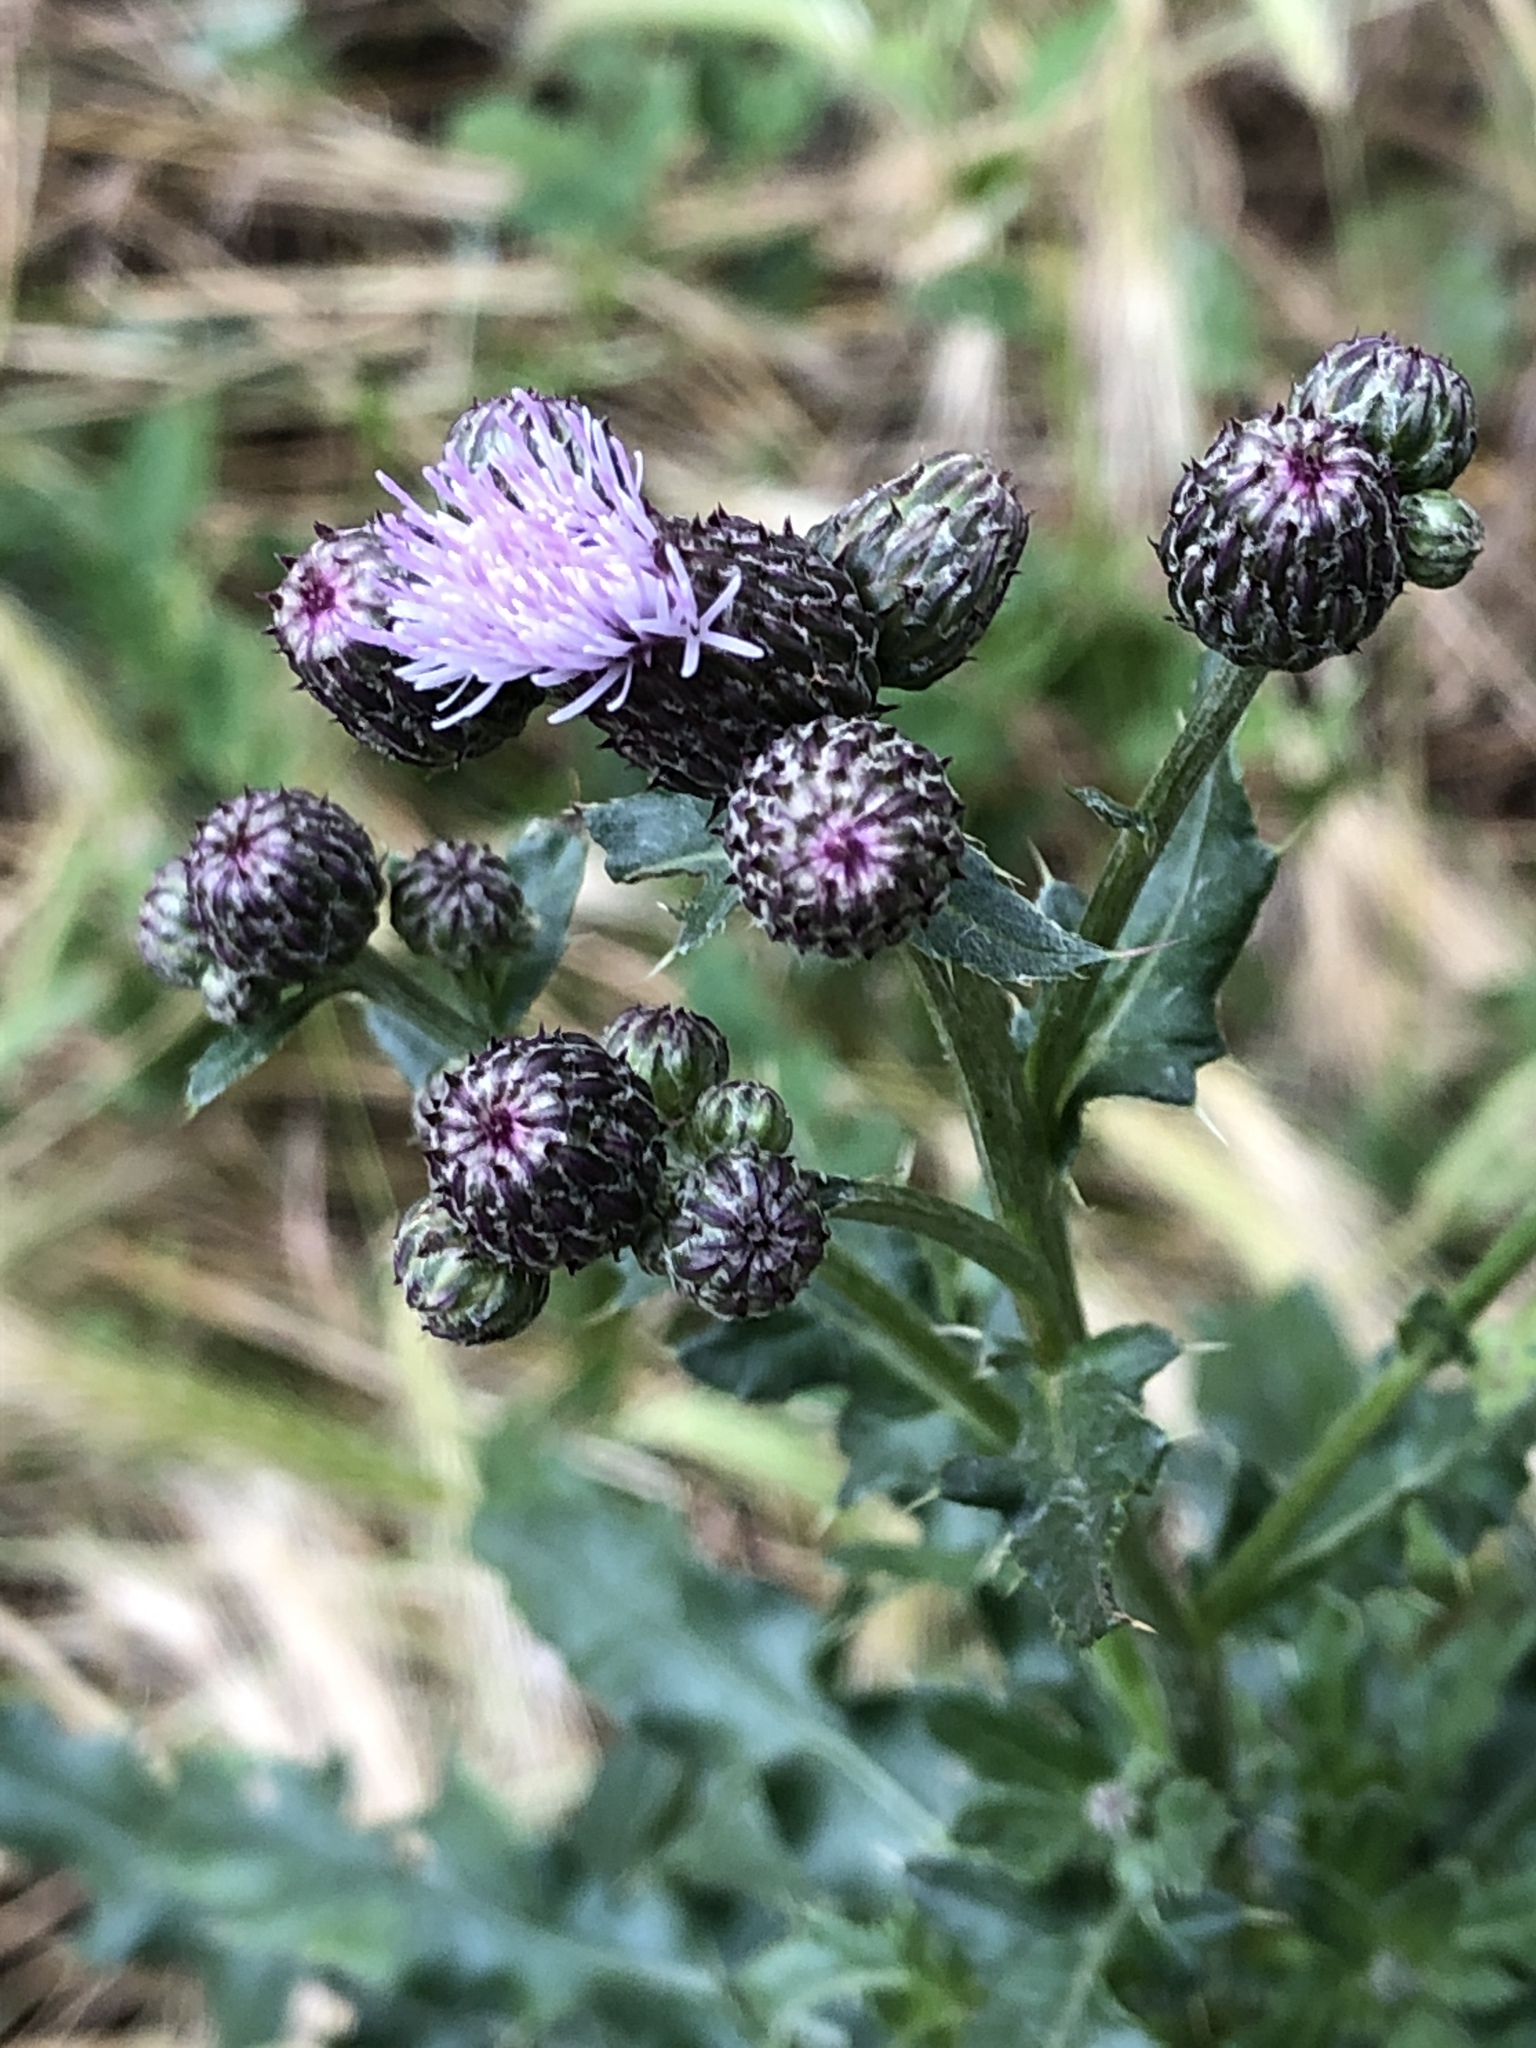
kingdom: Plantae
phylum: Tracheophyta
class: Magnoliopsida
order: Asterales
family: Asteraceae
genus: Cirsium
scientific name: Cirsium arvense
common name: Creeping thistle
